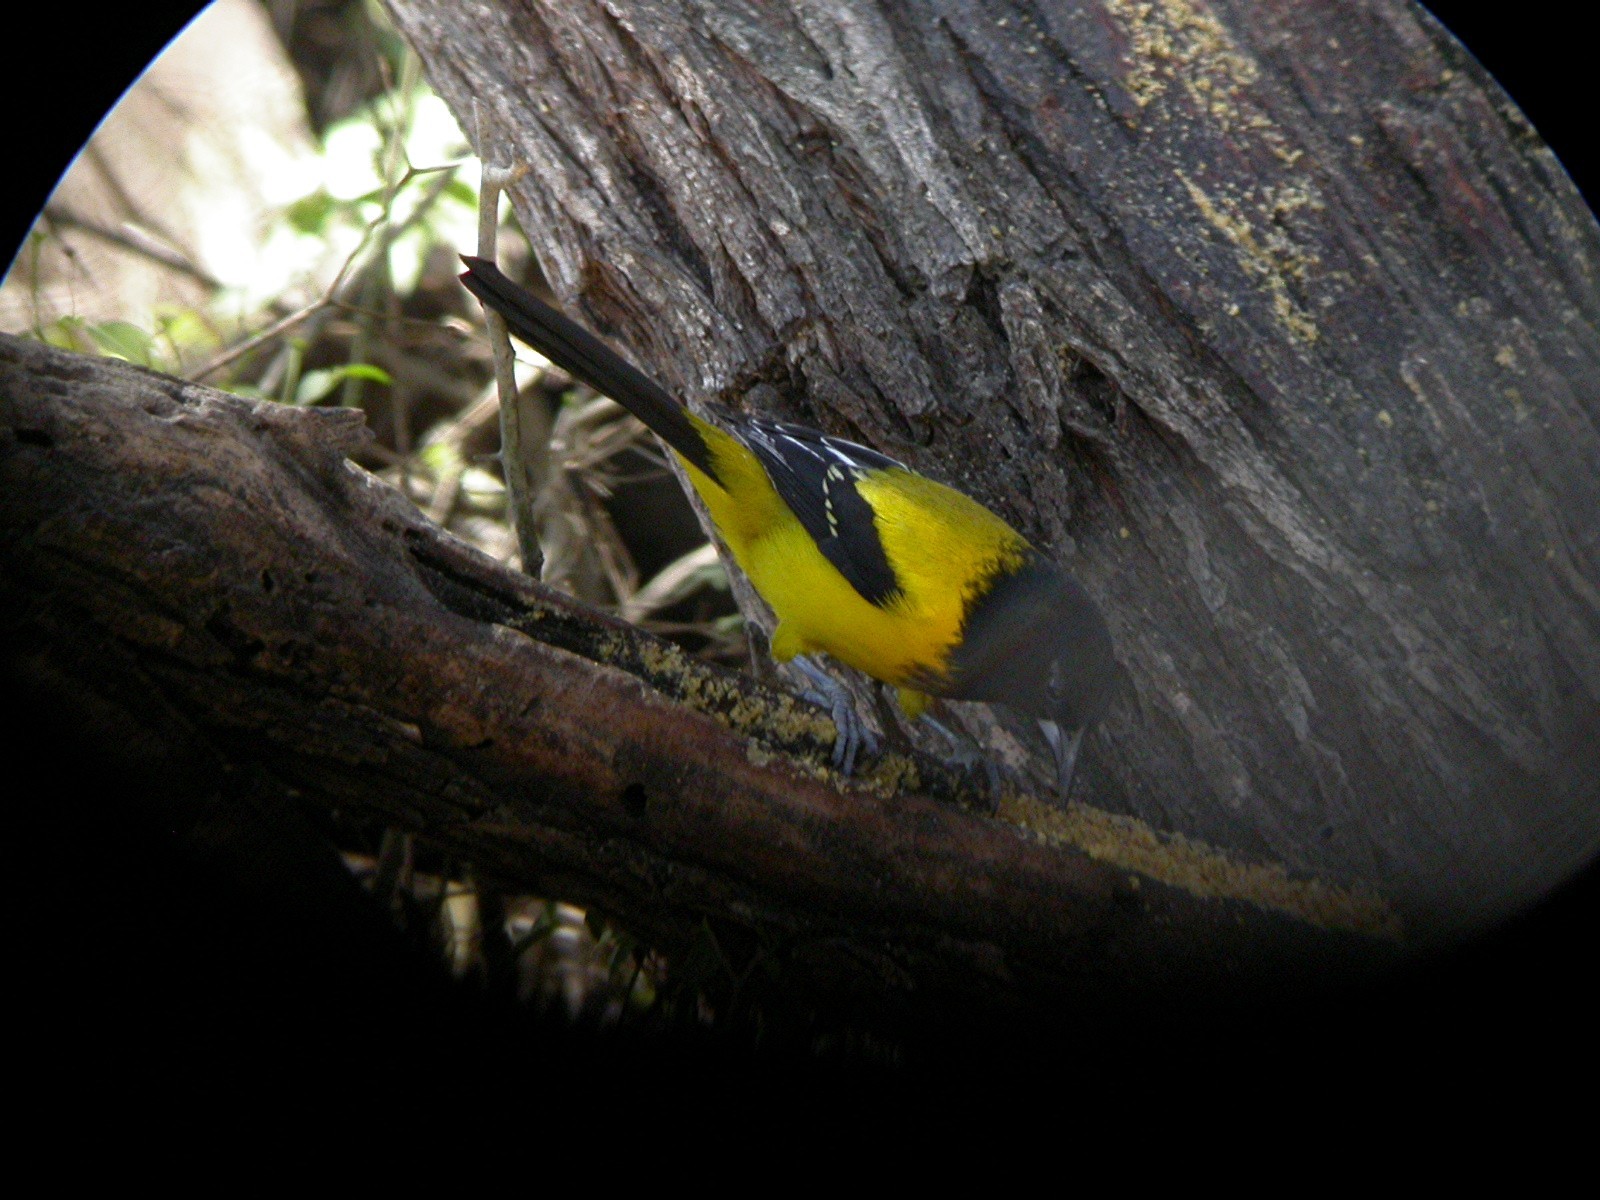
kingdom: Animalia
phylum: Chordata
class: Aves
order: Passeriformes
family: Icteridae
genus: Icterus
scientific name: Icterus graduacauda
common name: Audubon's oriole
